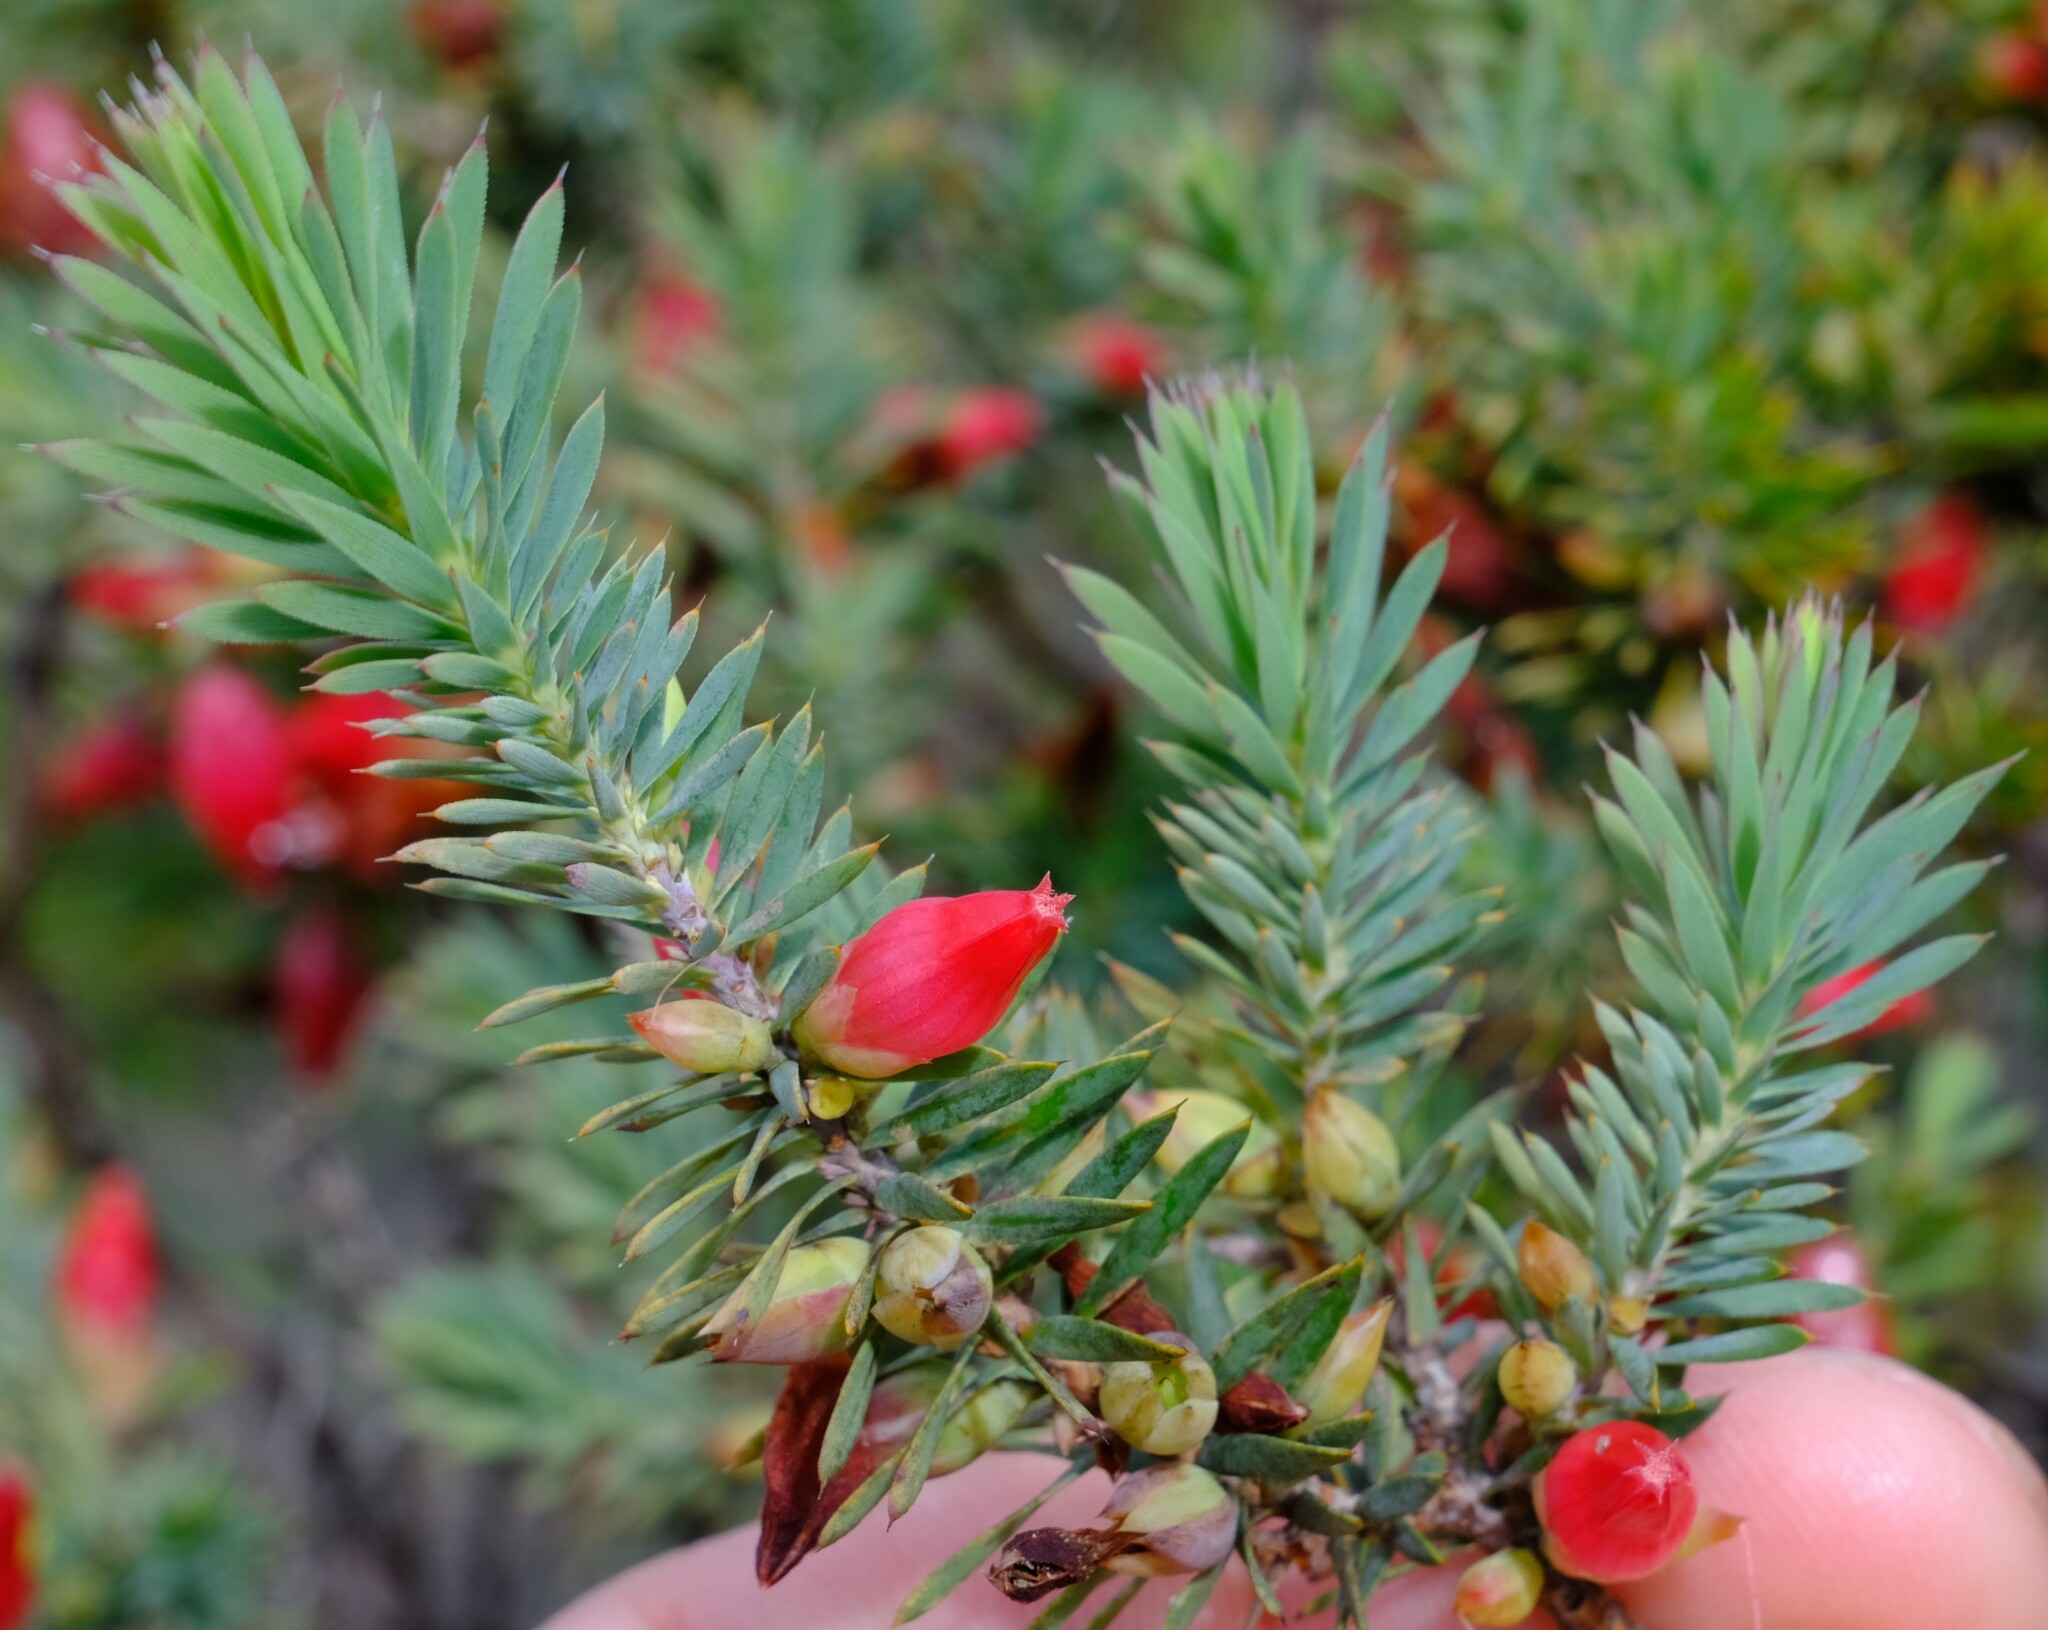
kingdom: Plantae
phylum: Tracheophyta
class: Magnoliopsida
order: Ericales
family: Ericaceae
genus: Styphelia
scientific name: Styphelia tortifolia
